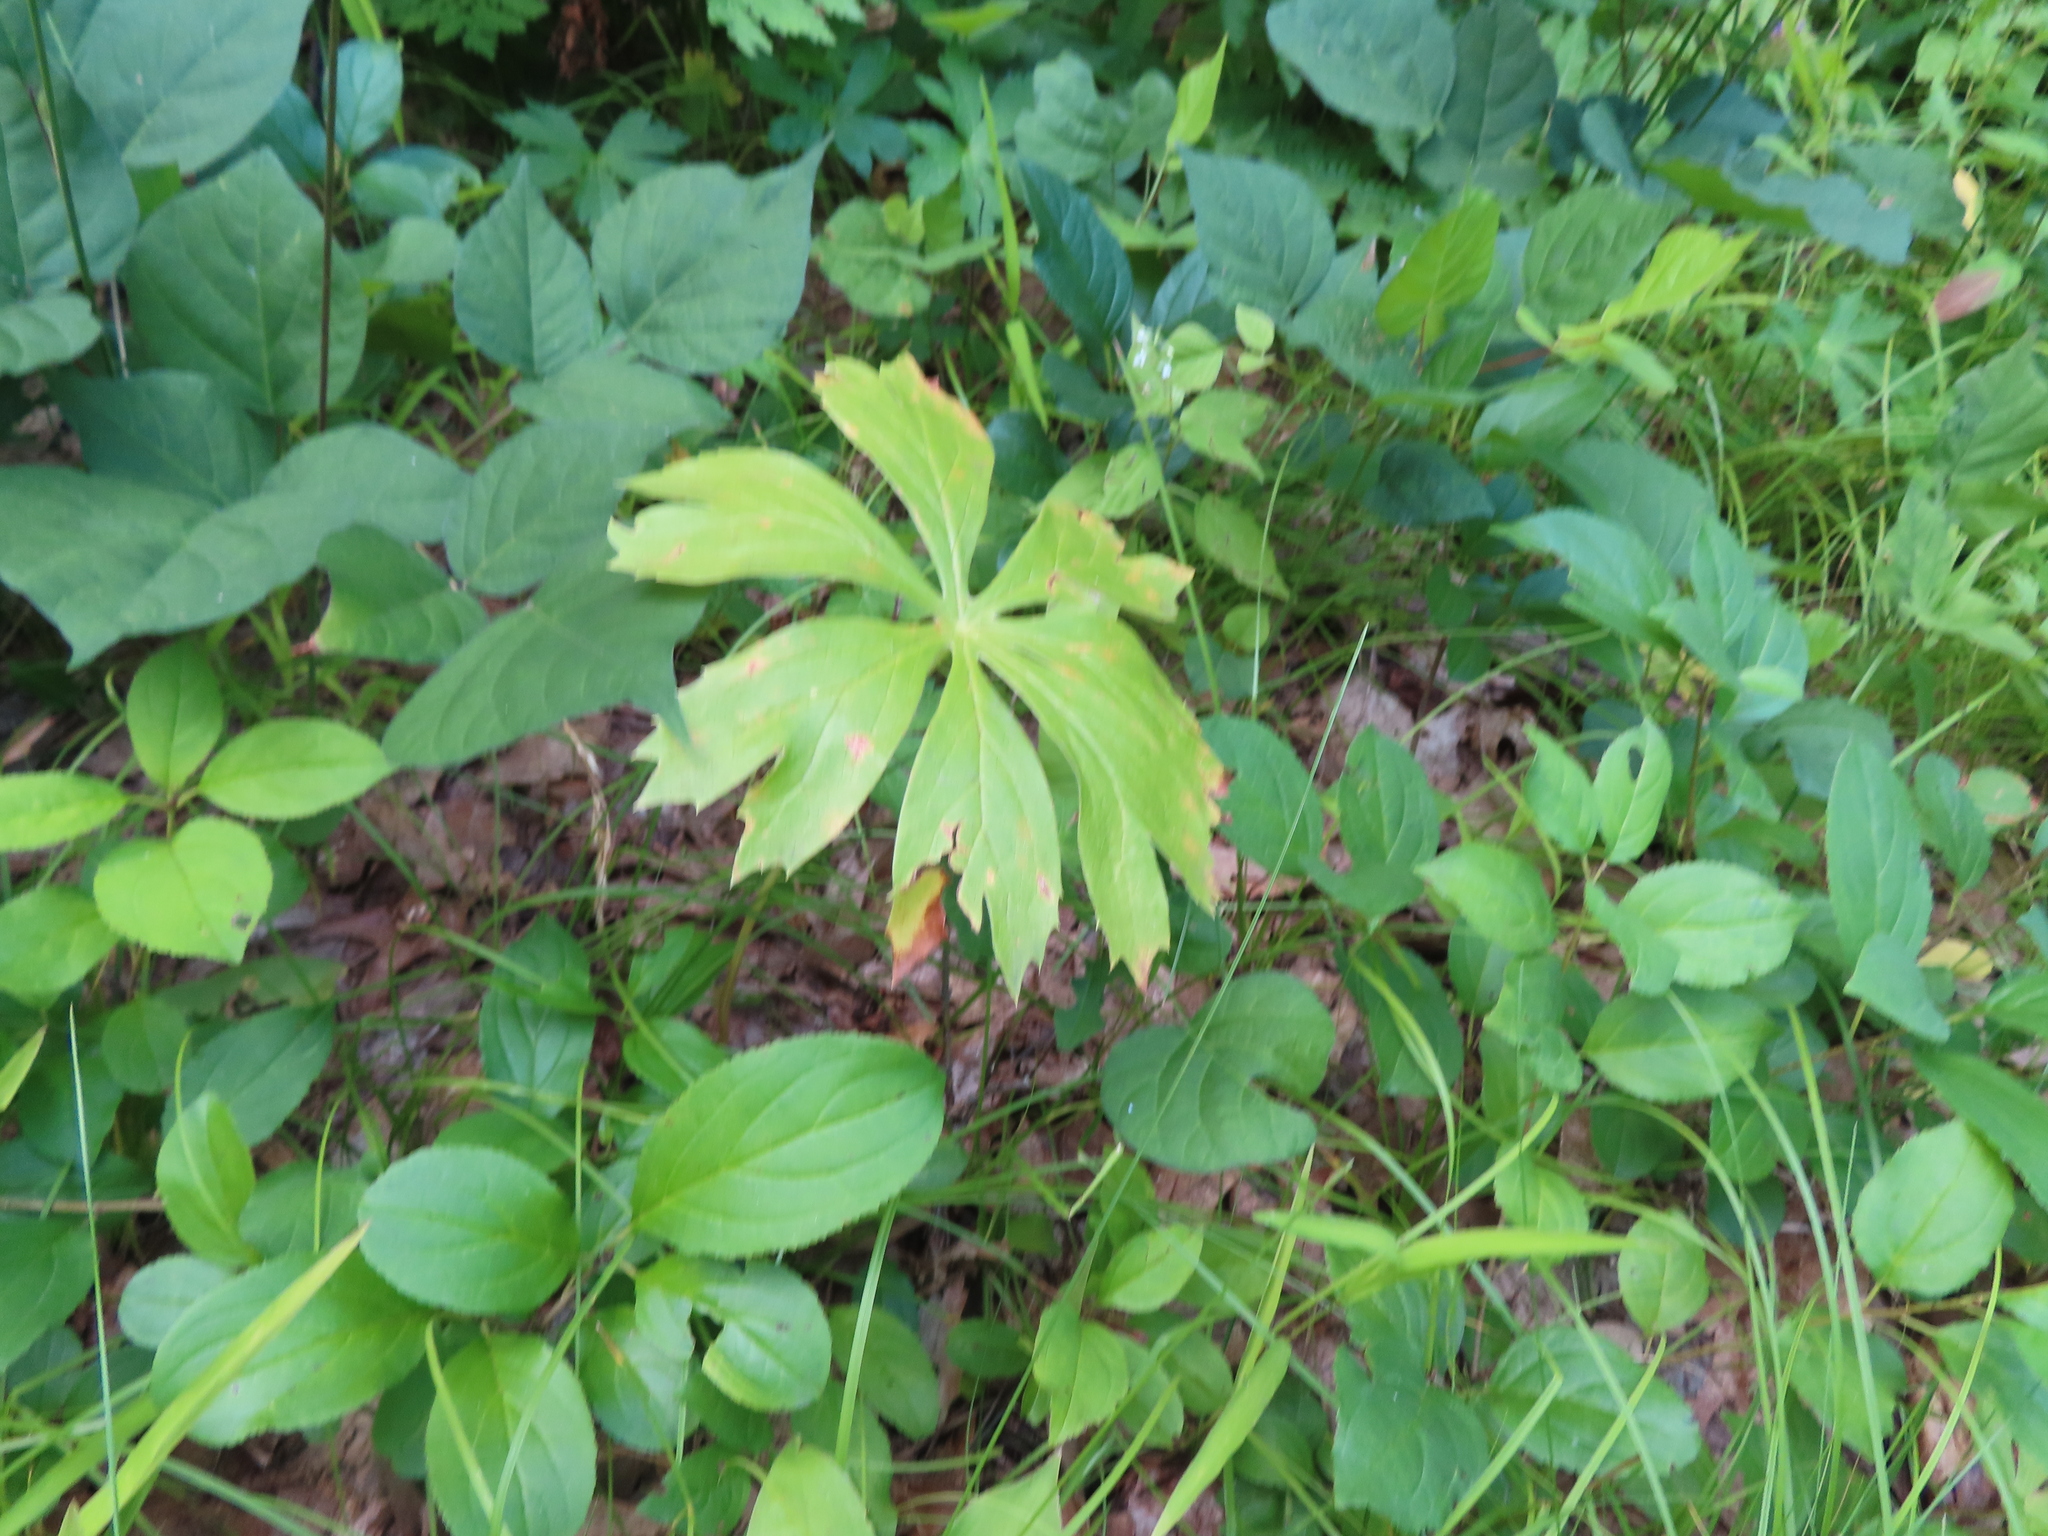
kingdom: Plantae
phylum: Tracheophyta
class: Magnoliopsida
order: Ranunculales
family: Berberidaceae
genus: Podophyllum
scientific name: Podophyllum peltatum
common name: Wild mandrake
